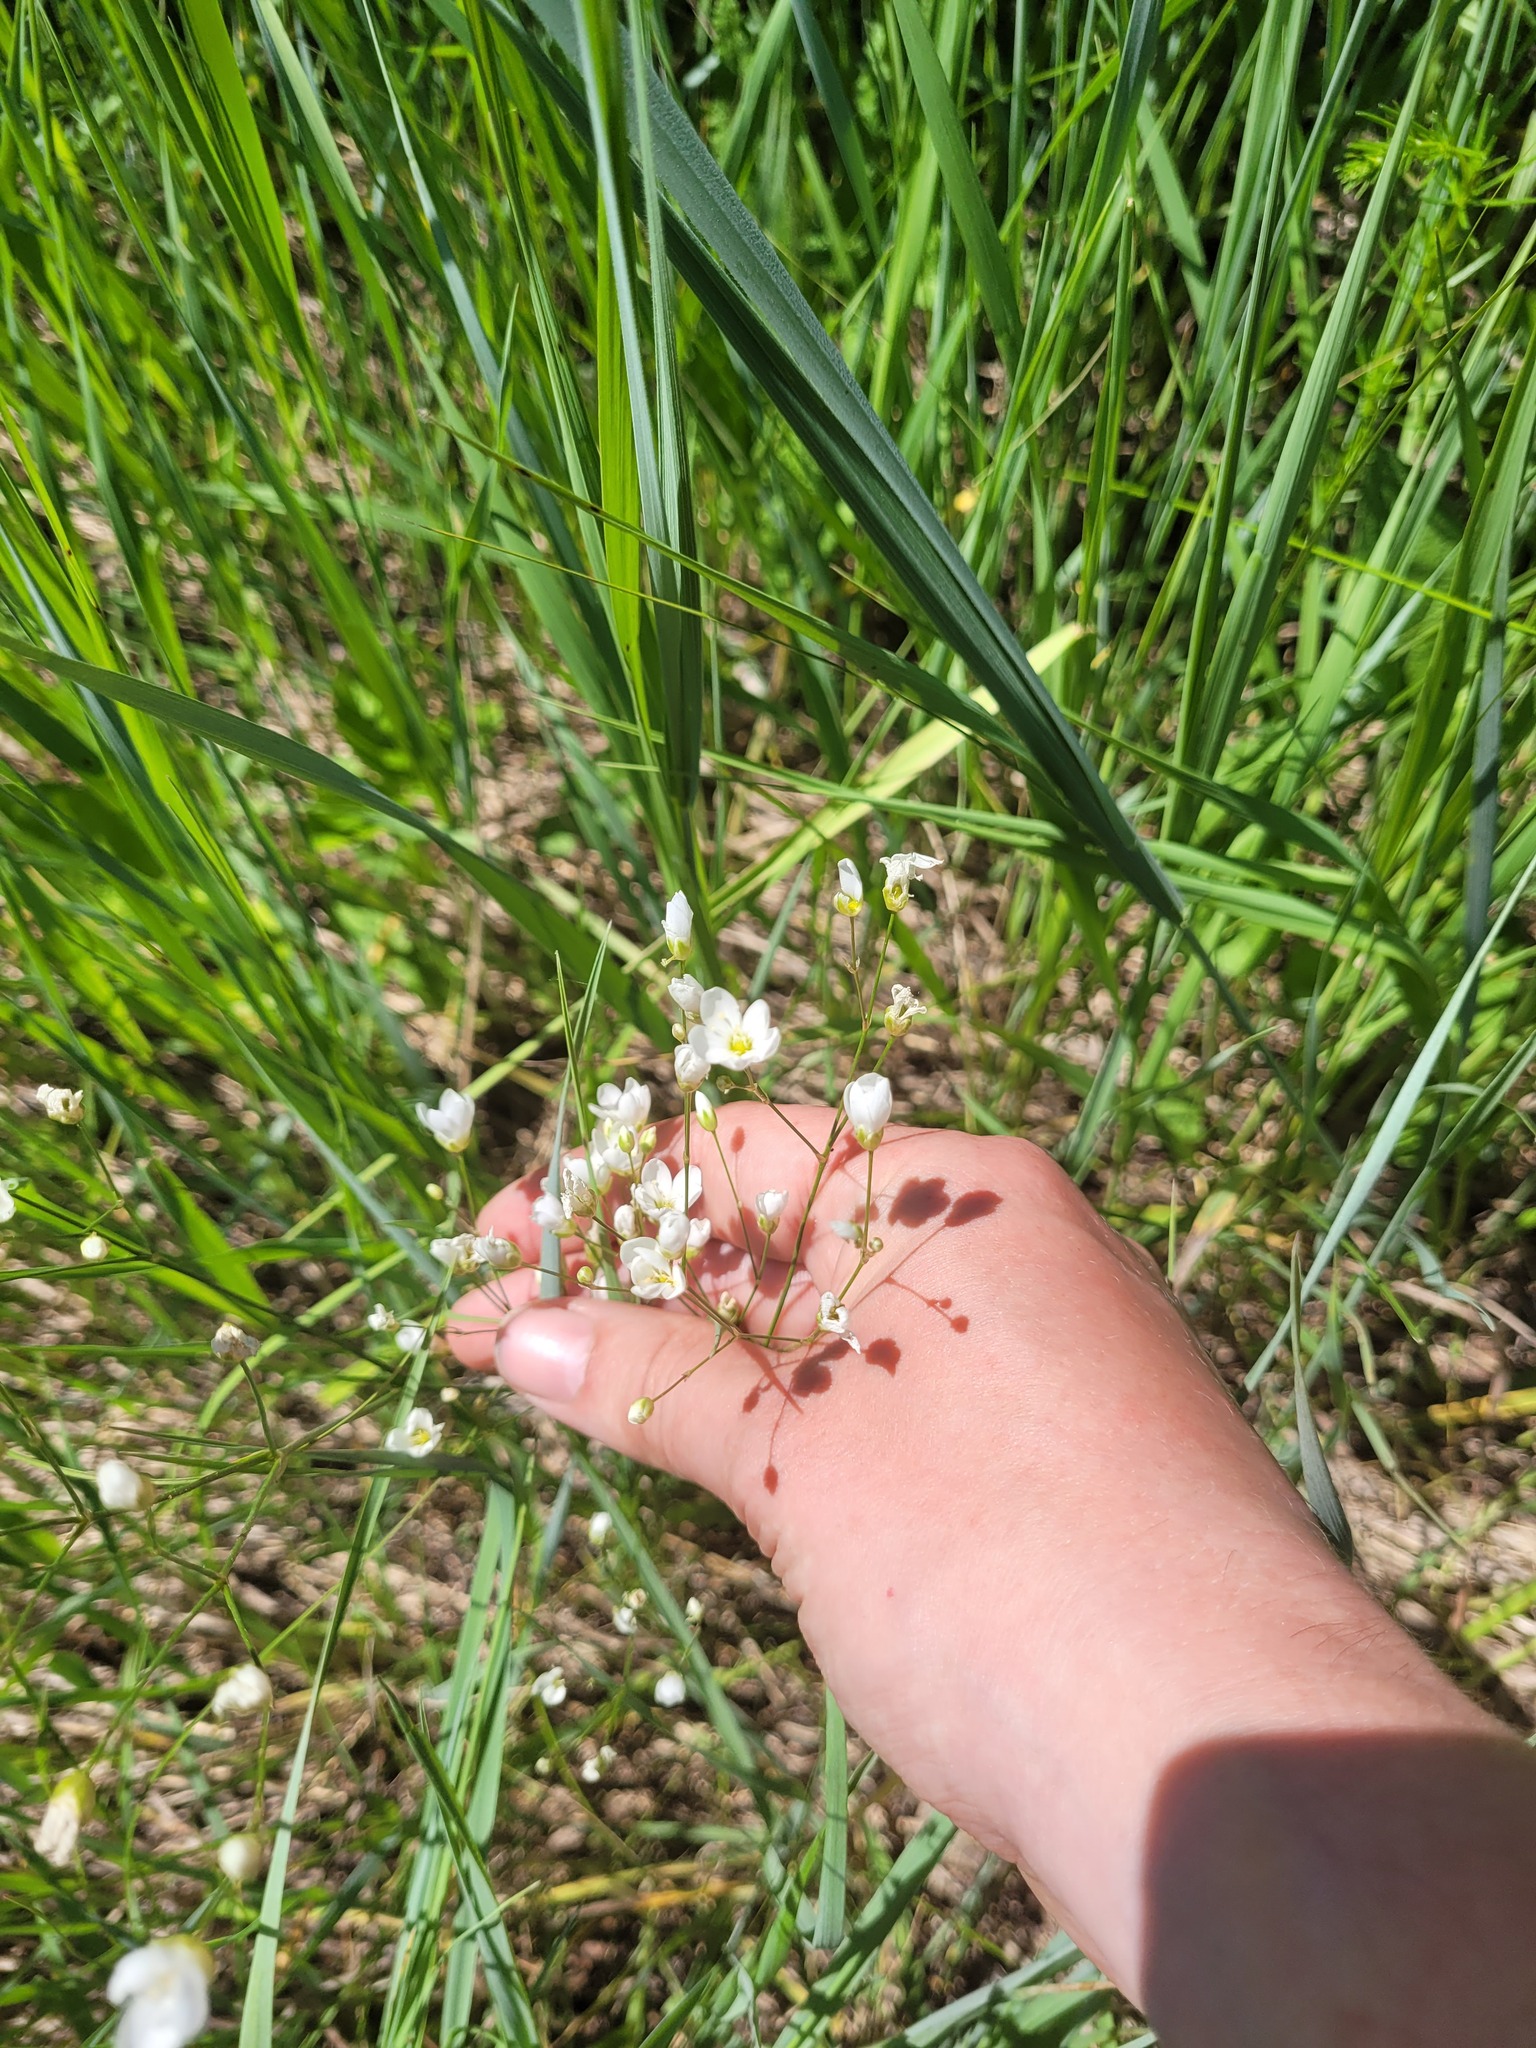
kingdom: Plantae
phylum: Tracheophyta
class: Magnoliopsida
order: Caryophyllales
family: Caryophyllaceae
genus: Eremogone
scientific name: Eremogone saxatilis
